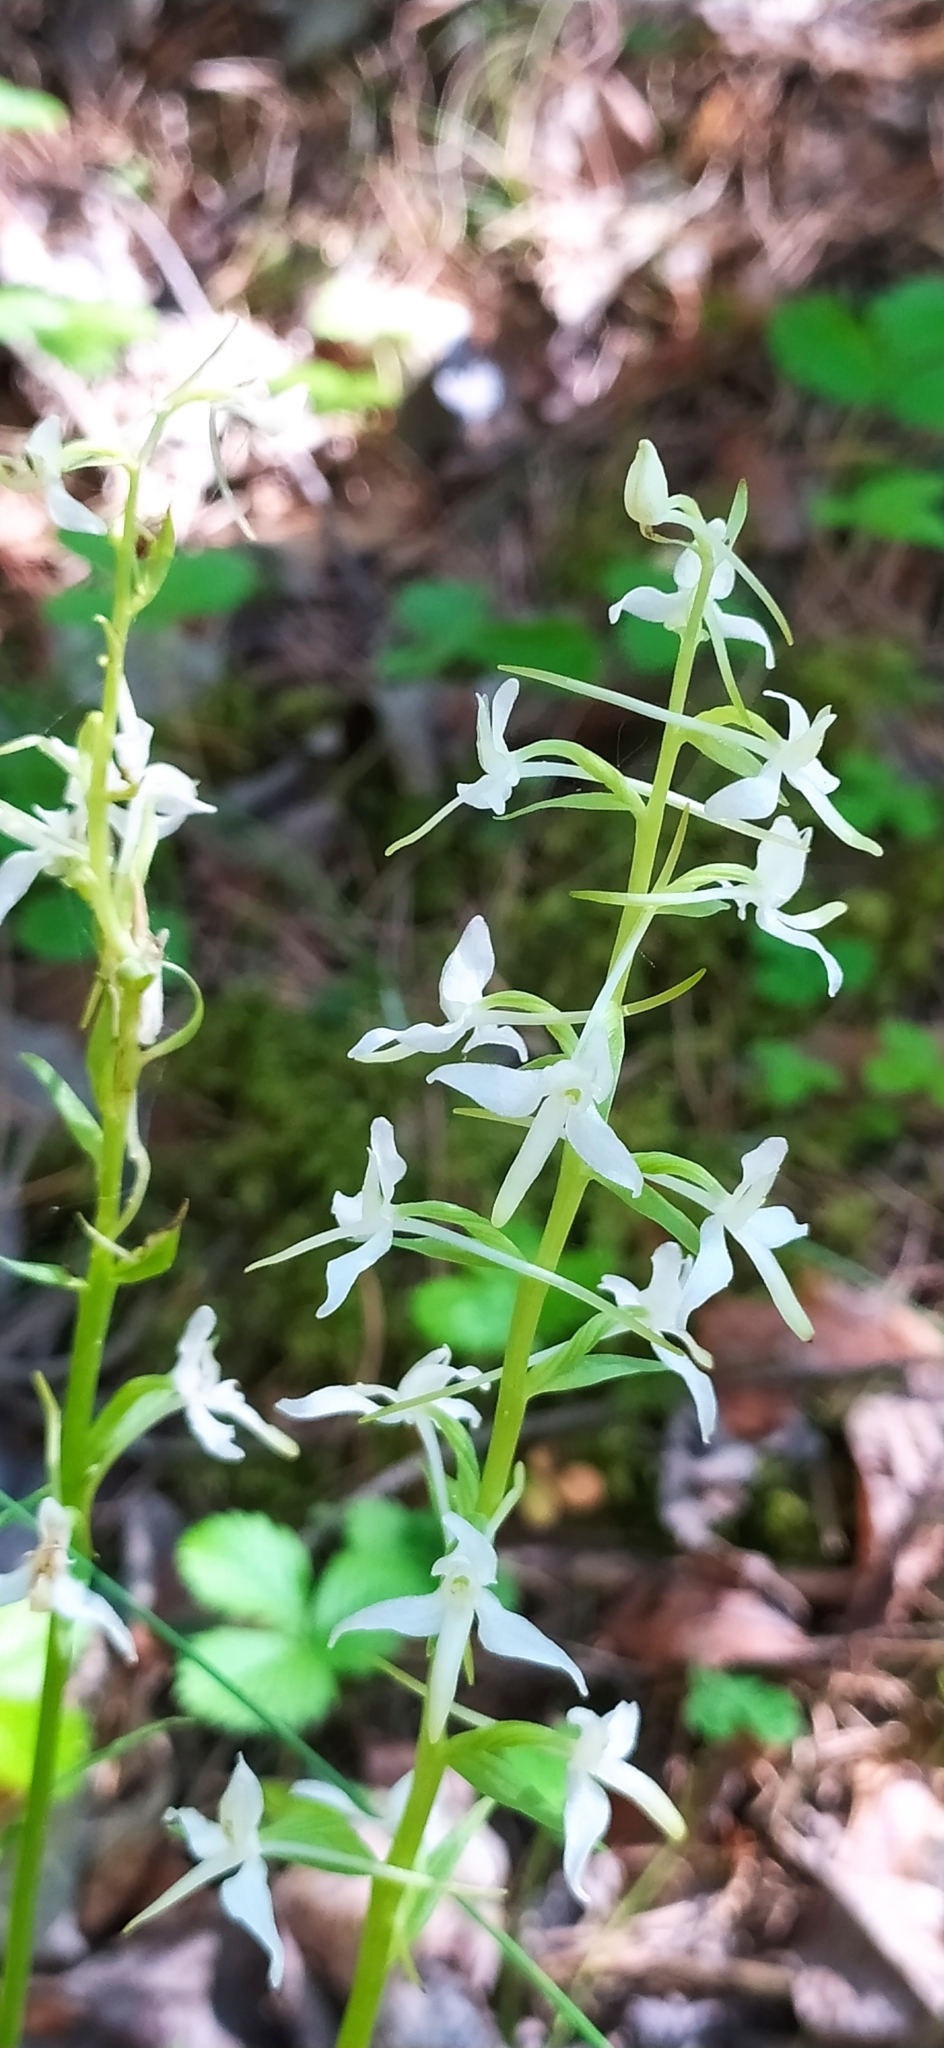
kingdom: Plantae
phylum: Tracheophyta
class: Liliopsida
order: Asparagales
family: Orchidaceae
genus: Platanthera
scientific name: Platanthera bifolia
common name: Lesser butterfly-orchid
